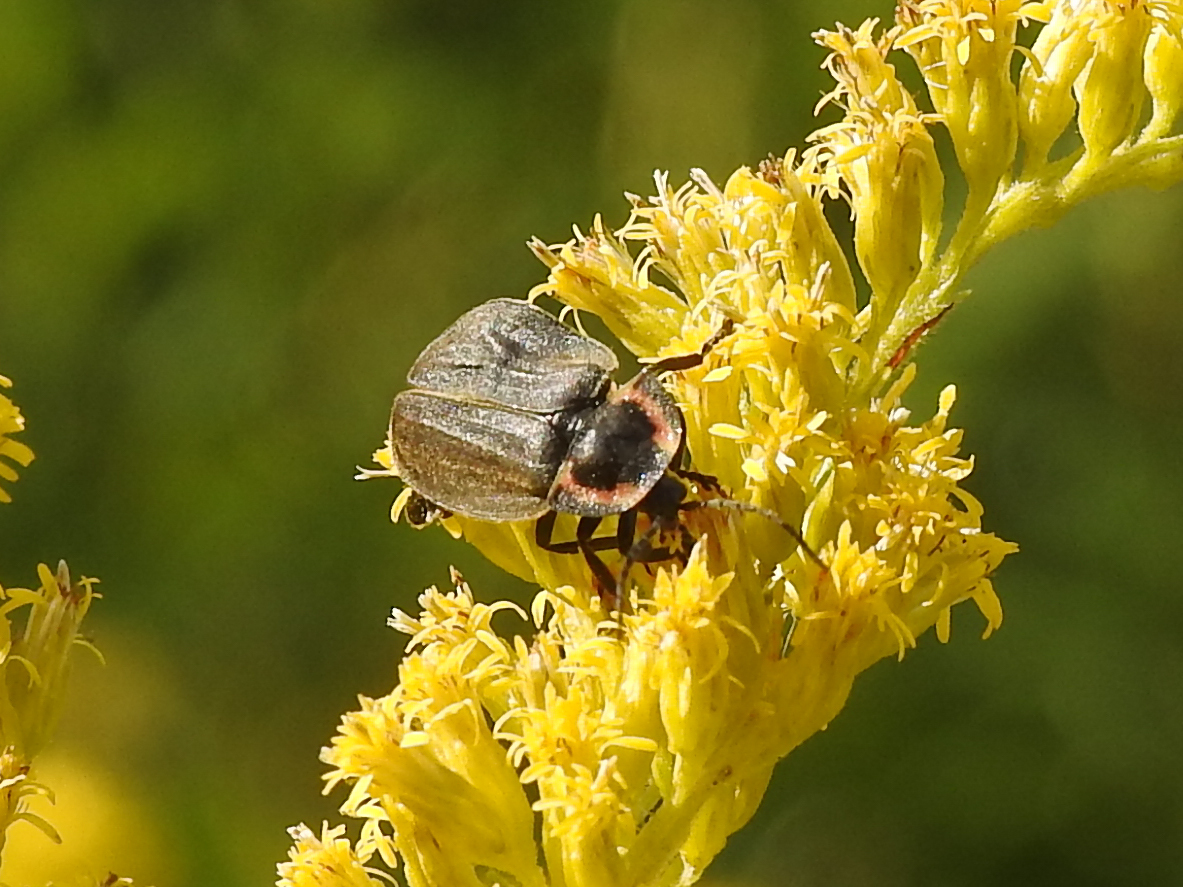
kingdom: Animalia
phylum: Arthropoda
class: Insecta
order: Coleoptera
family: Lampyridae
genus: Photinus
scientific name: Photinus corrusca
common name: Winter firefly
